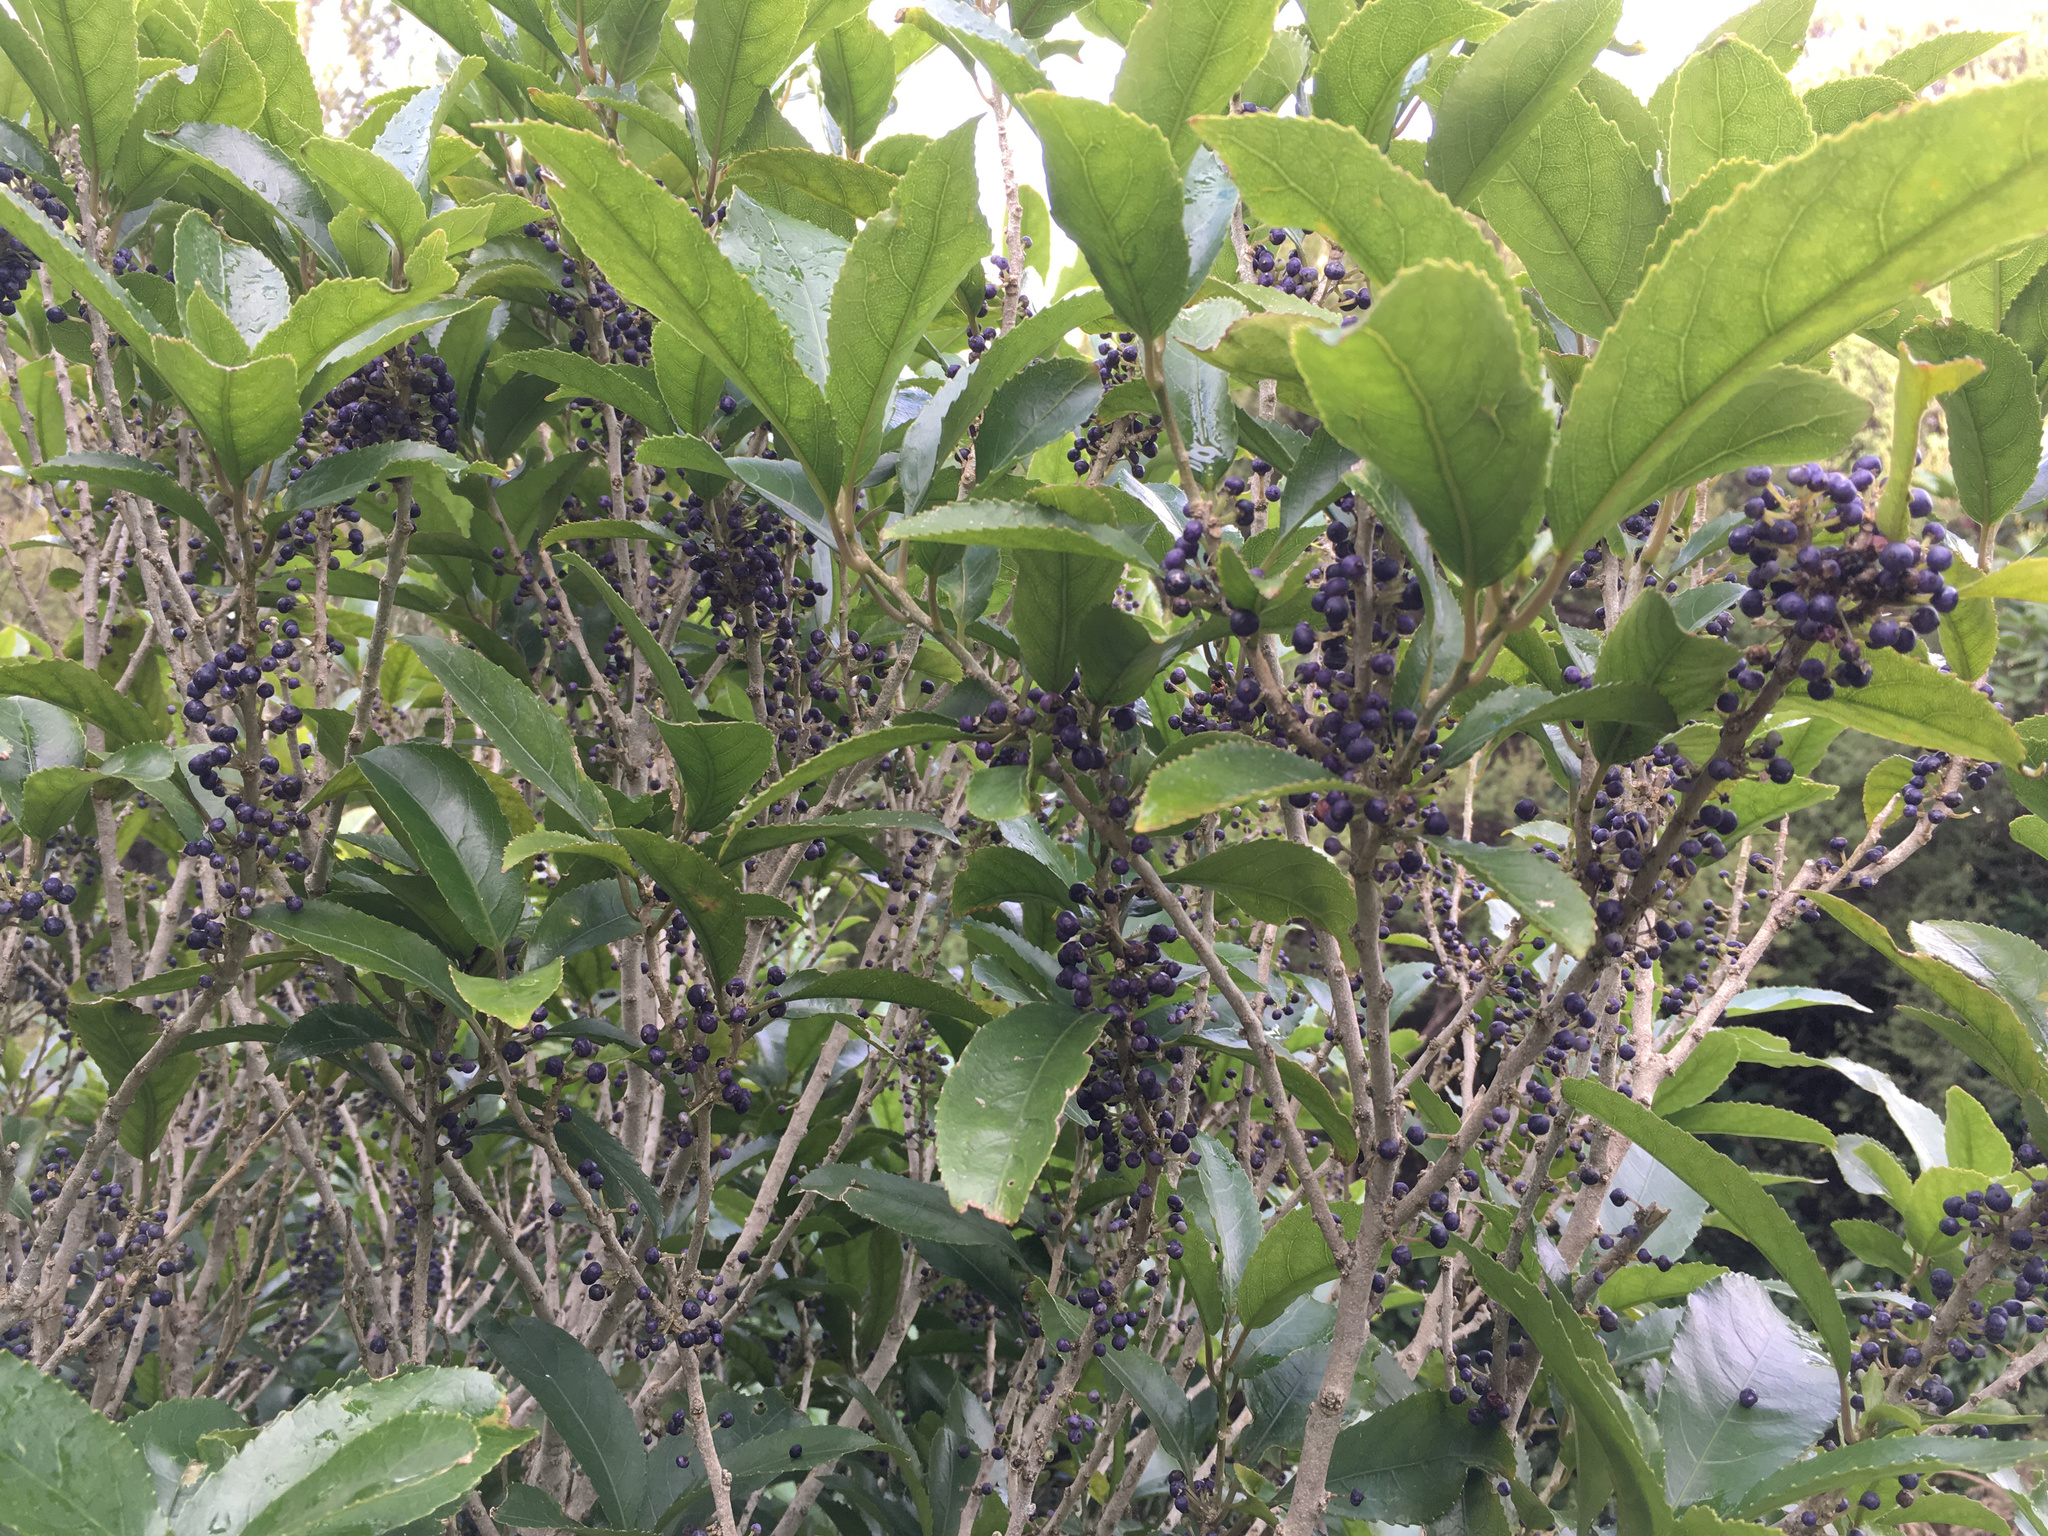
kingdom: Plantae
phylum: Tracheophyta
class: Magnoliopsida
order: Malpighiales
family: Violaceae
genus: Melicytus
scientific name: Melicytus ramiflorus
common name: Mahoe
